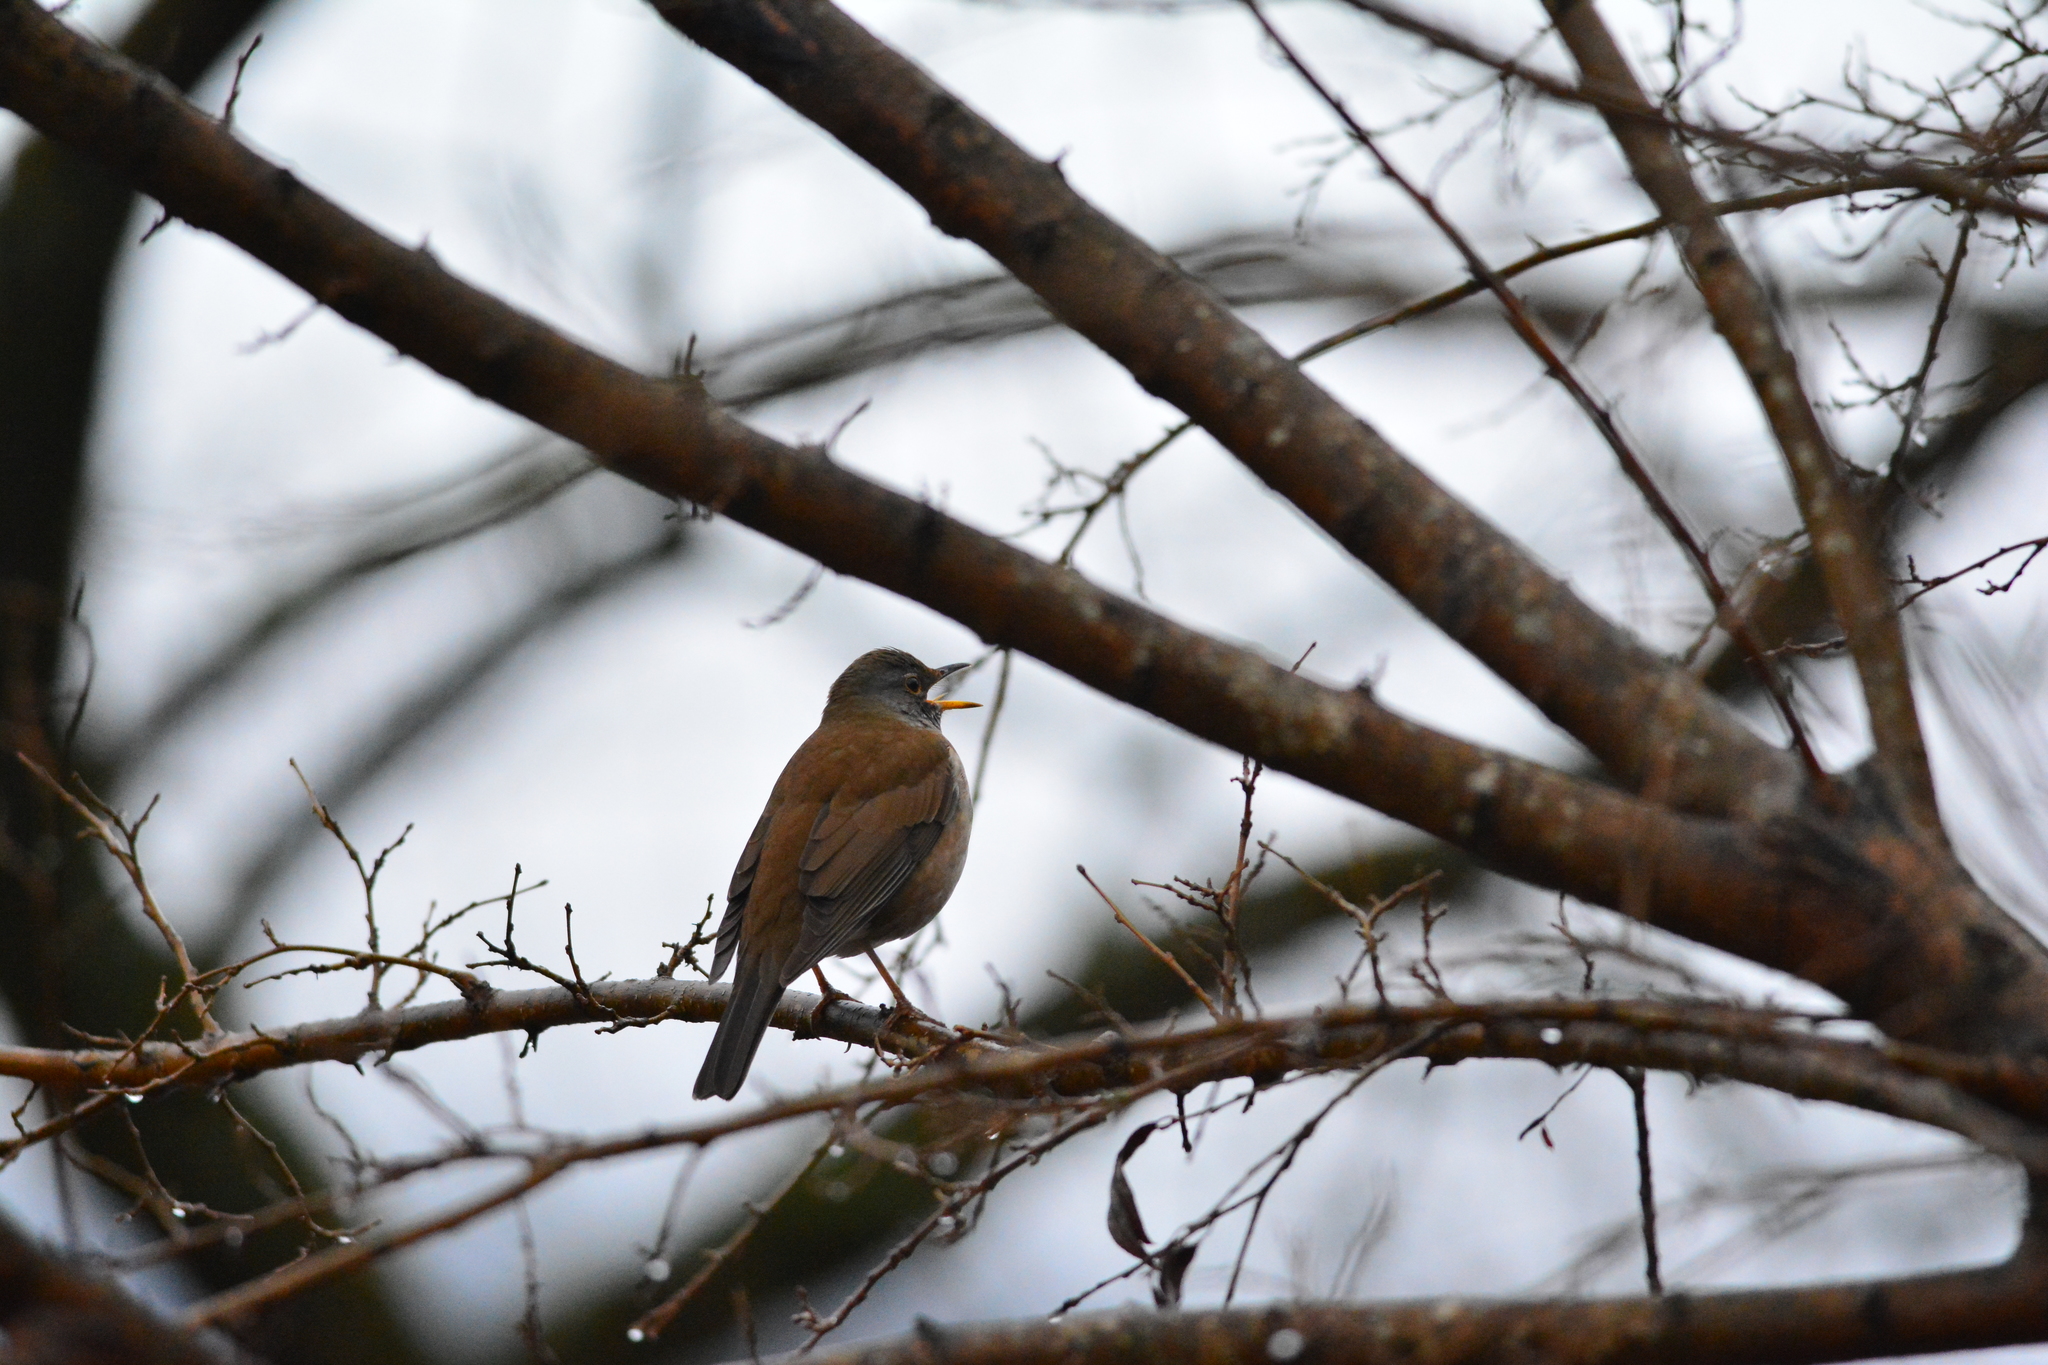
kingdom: Animalia
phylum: Chordata
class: Aves
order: Passeriformes
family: Turdidae
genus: Turdus
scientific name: Turdus pallidus
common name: Pale thrush
